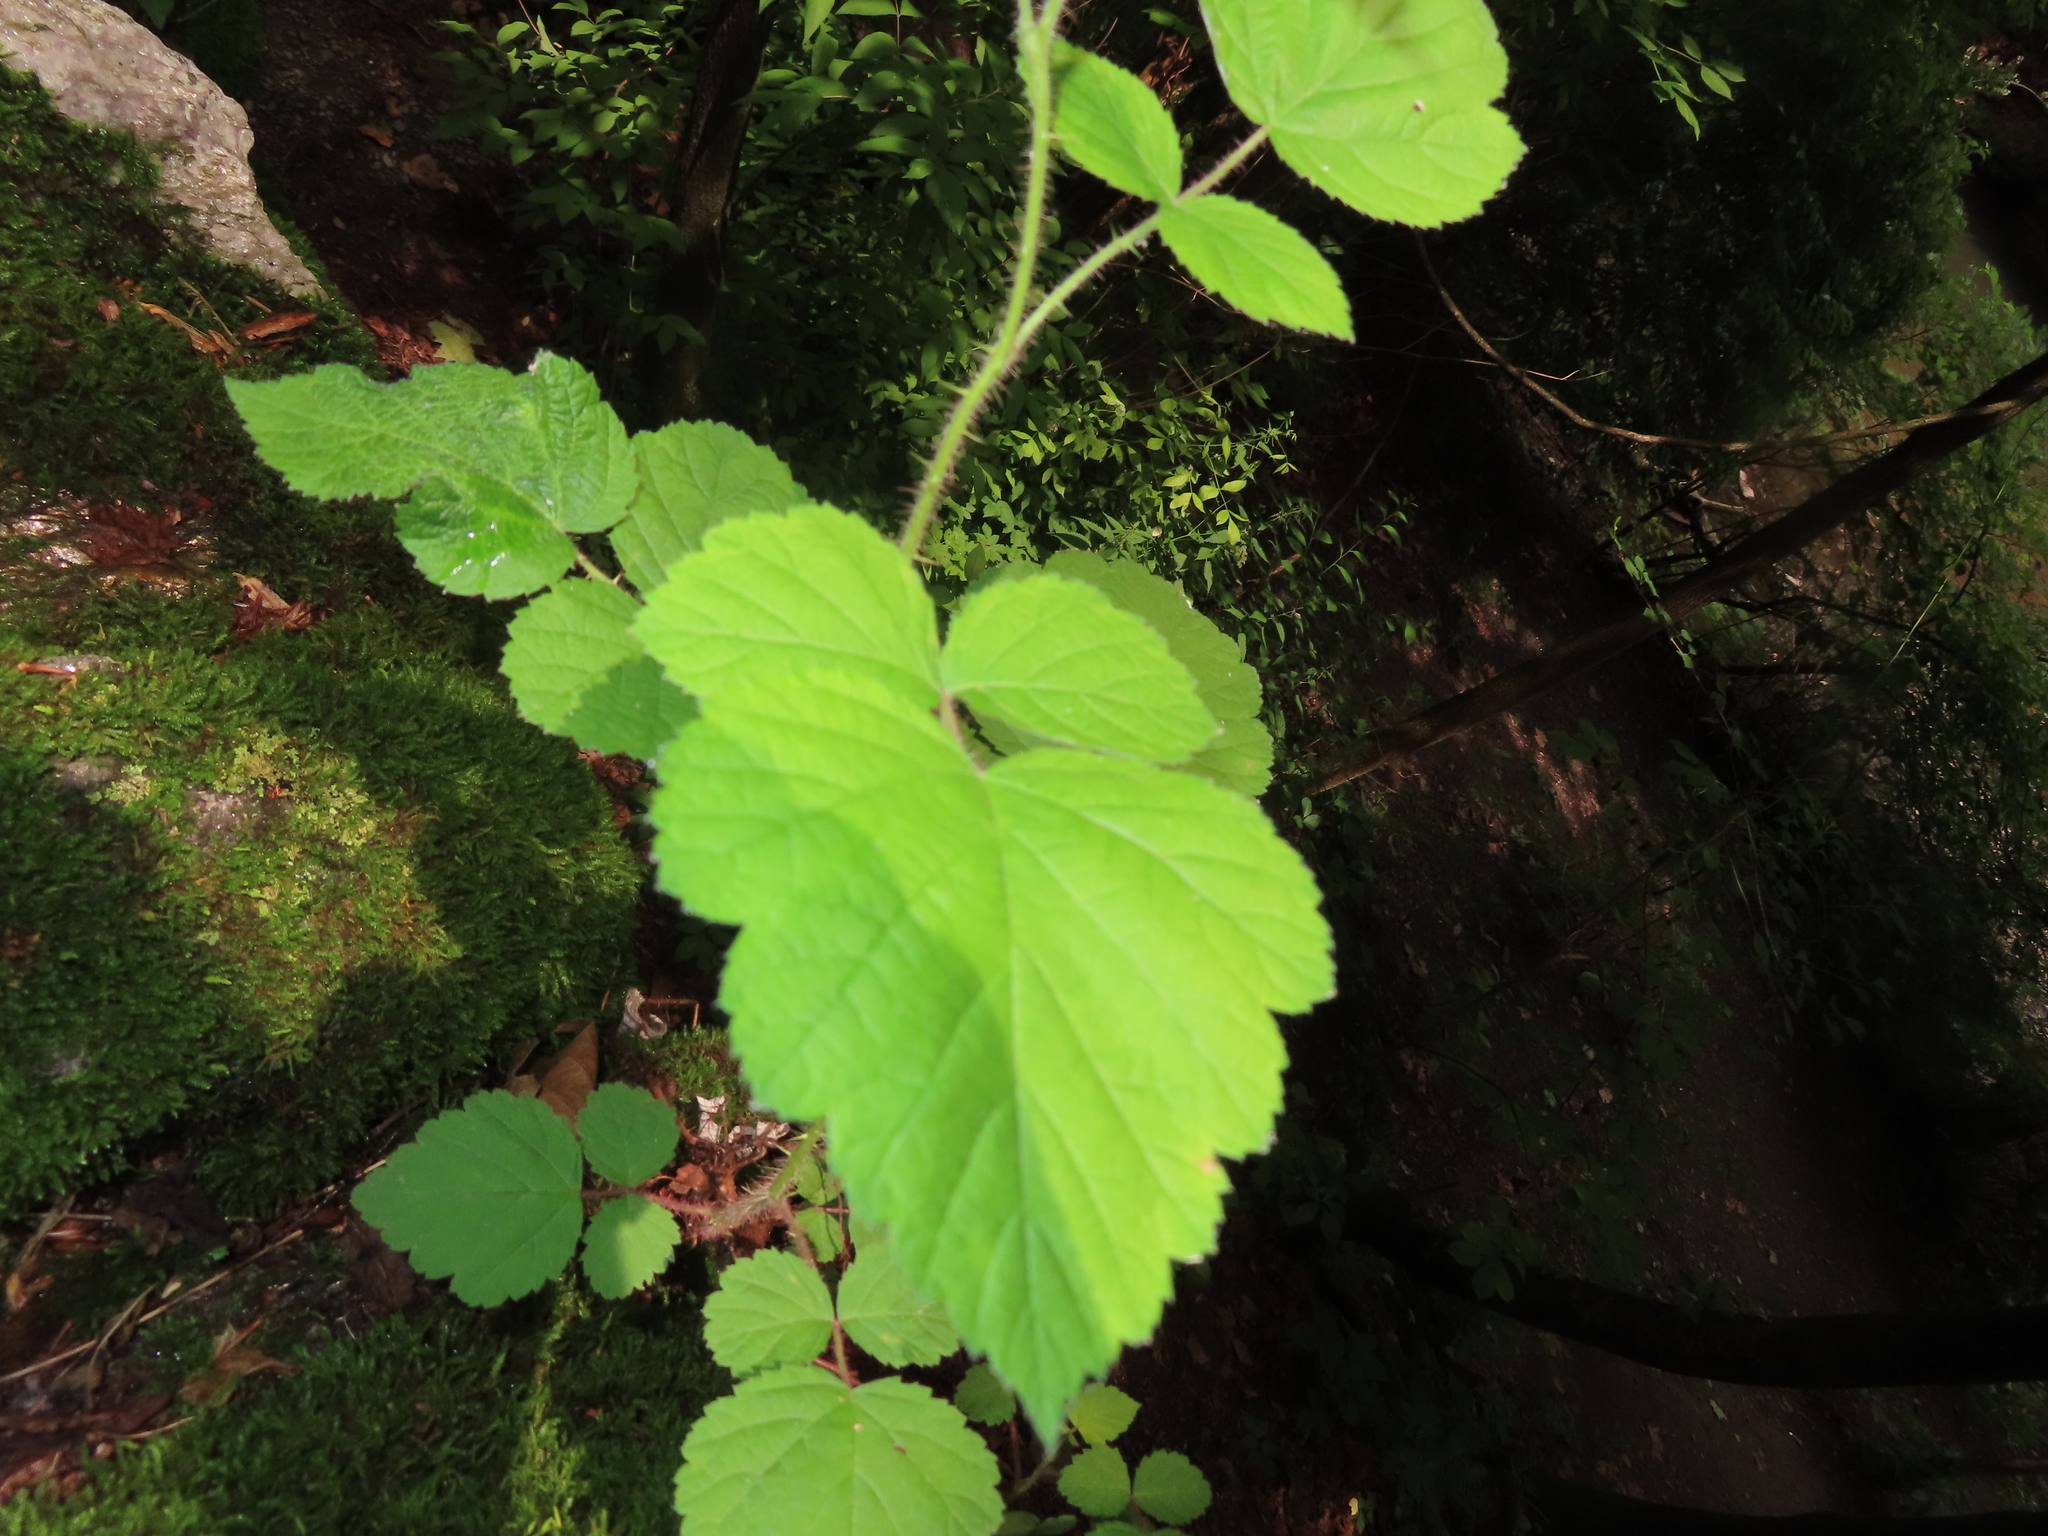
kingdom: Plantae
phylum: Tracheophyta
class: Magnoliopsida
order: Rosales
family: Rosaceae
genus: Rubus
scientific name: Rubus phoenicolasius
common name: Japanese wineberry
